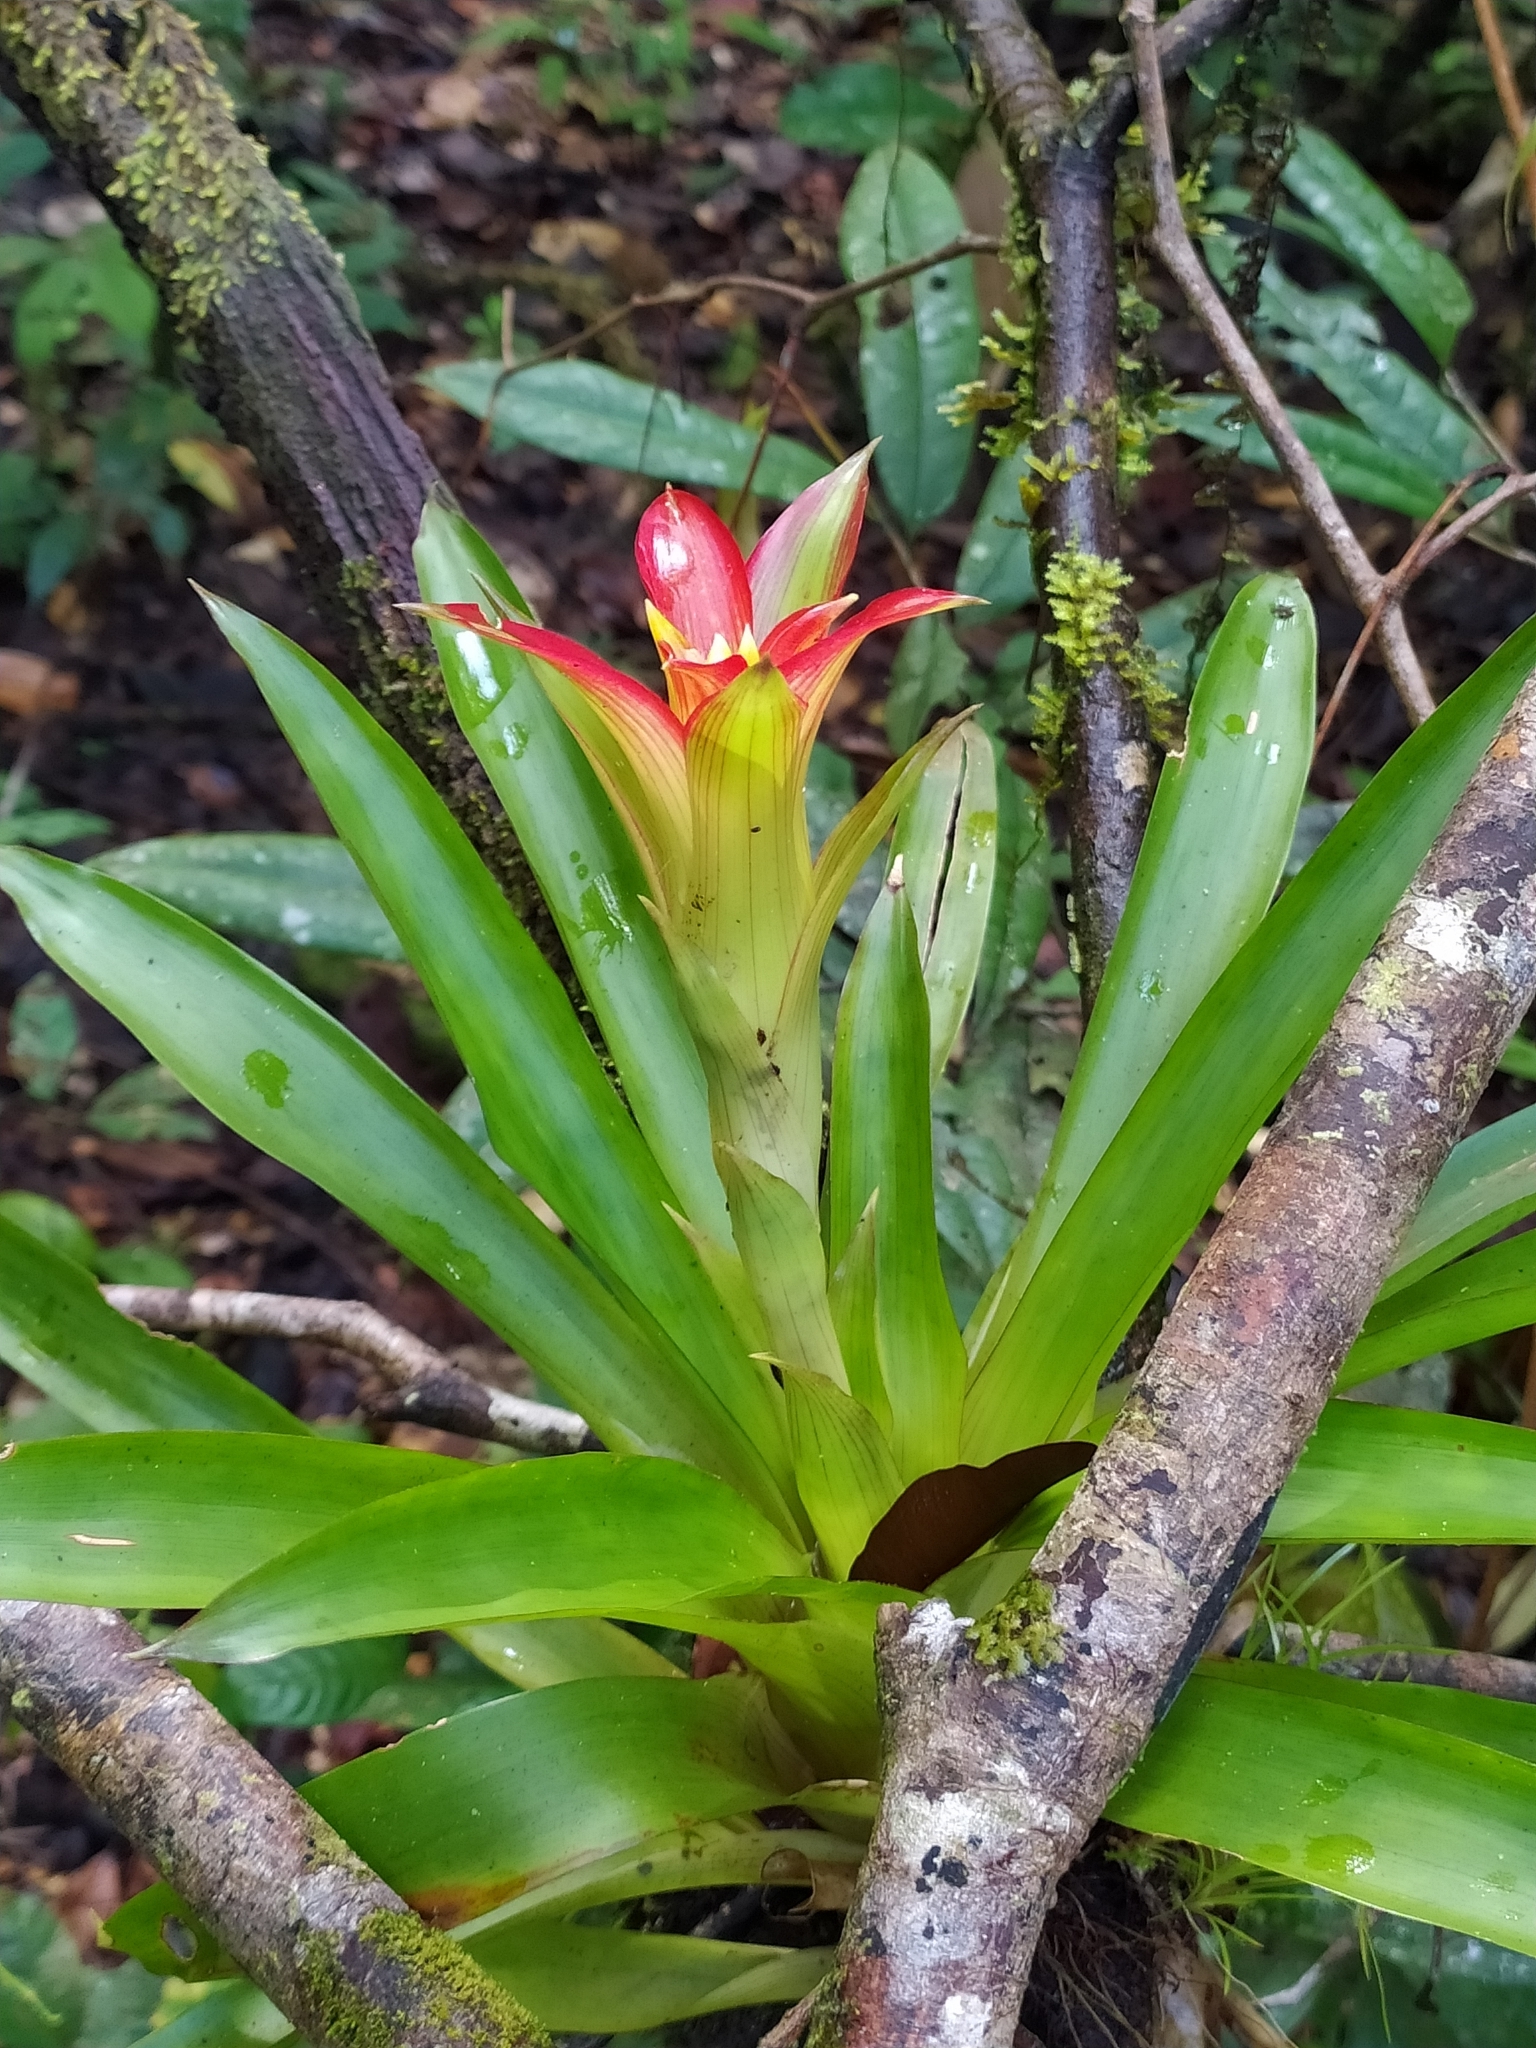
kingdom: Plantae
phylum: Tracheophyta
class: Liliopsida
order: Poales
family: Bromeliaceae
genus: Guzmania
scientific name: Guzmania lingulata
